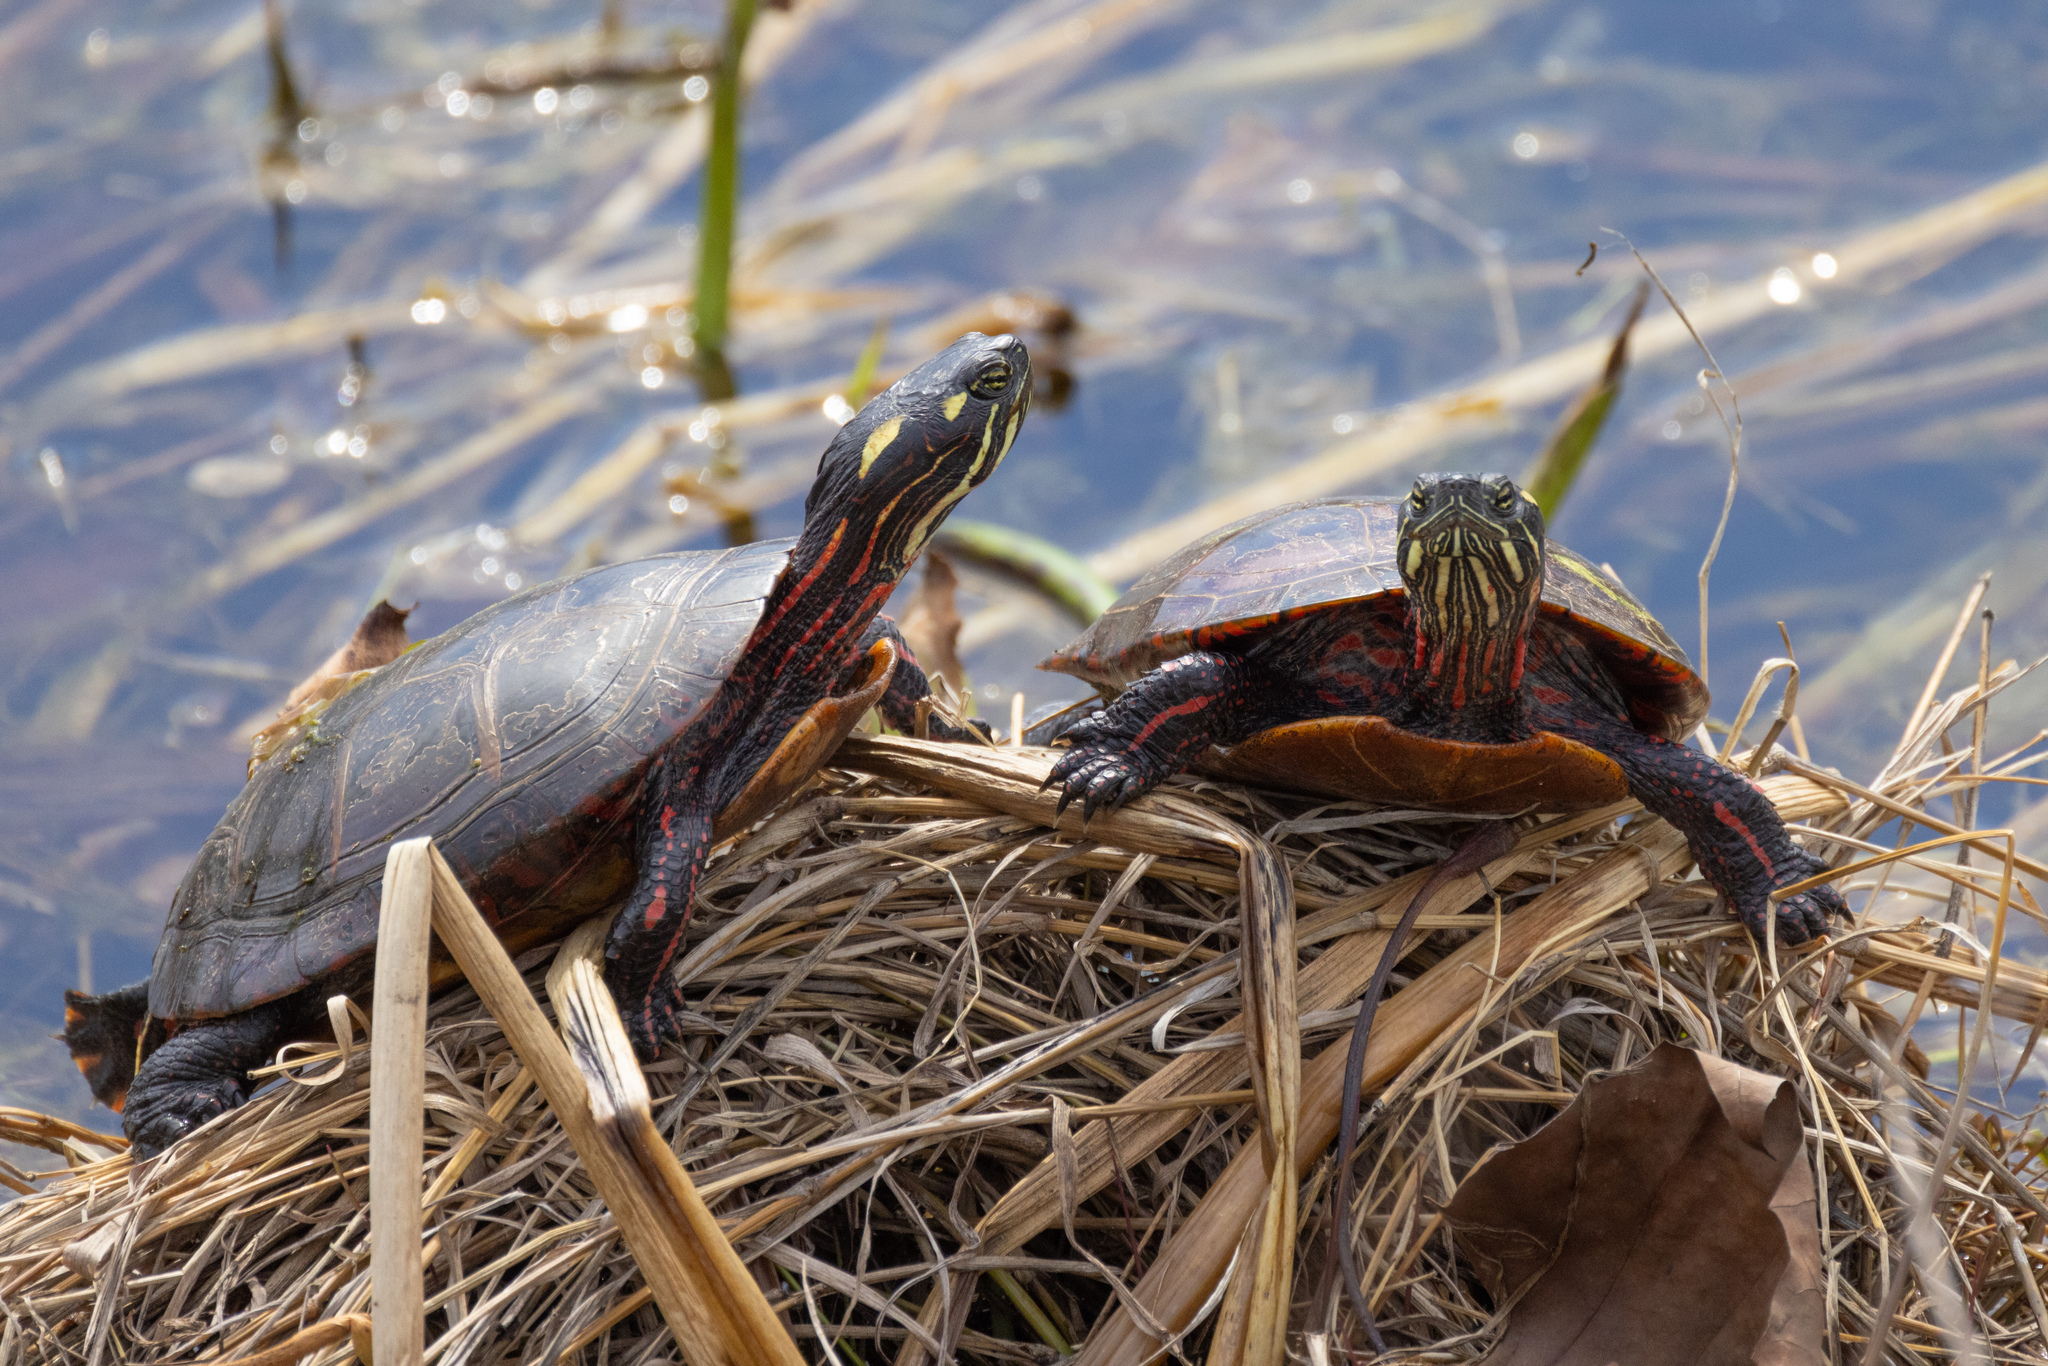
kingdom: Animalia
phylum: Chordata
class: Testudines
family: Emydidae
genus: Chrysemys
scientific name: Chrysemys picta
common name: Painted turtle
